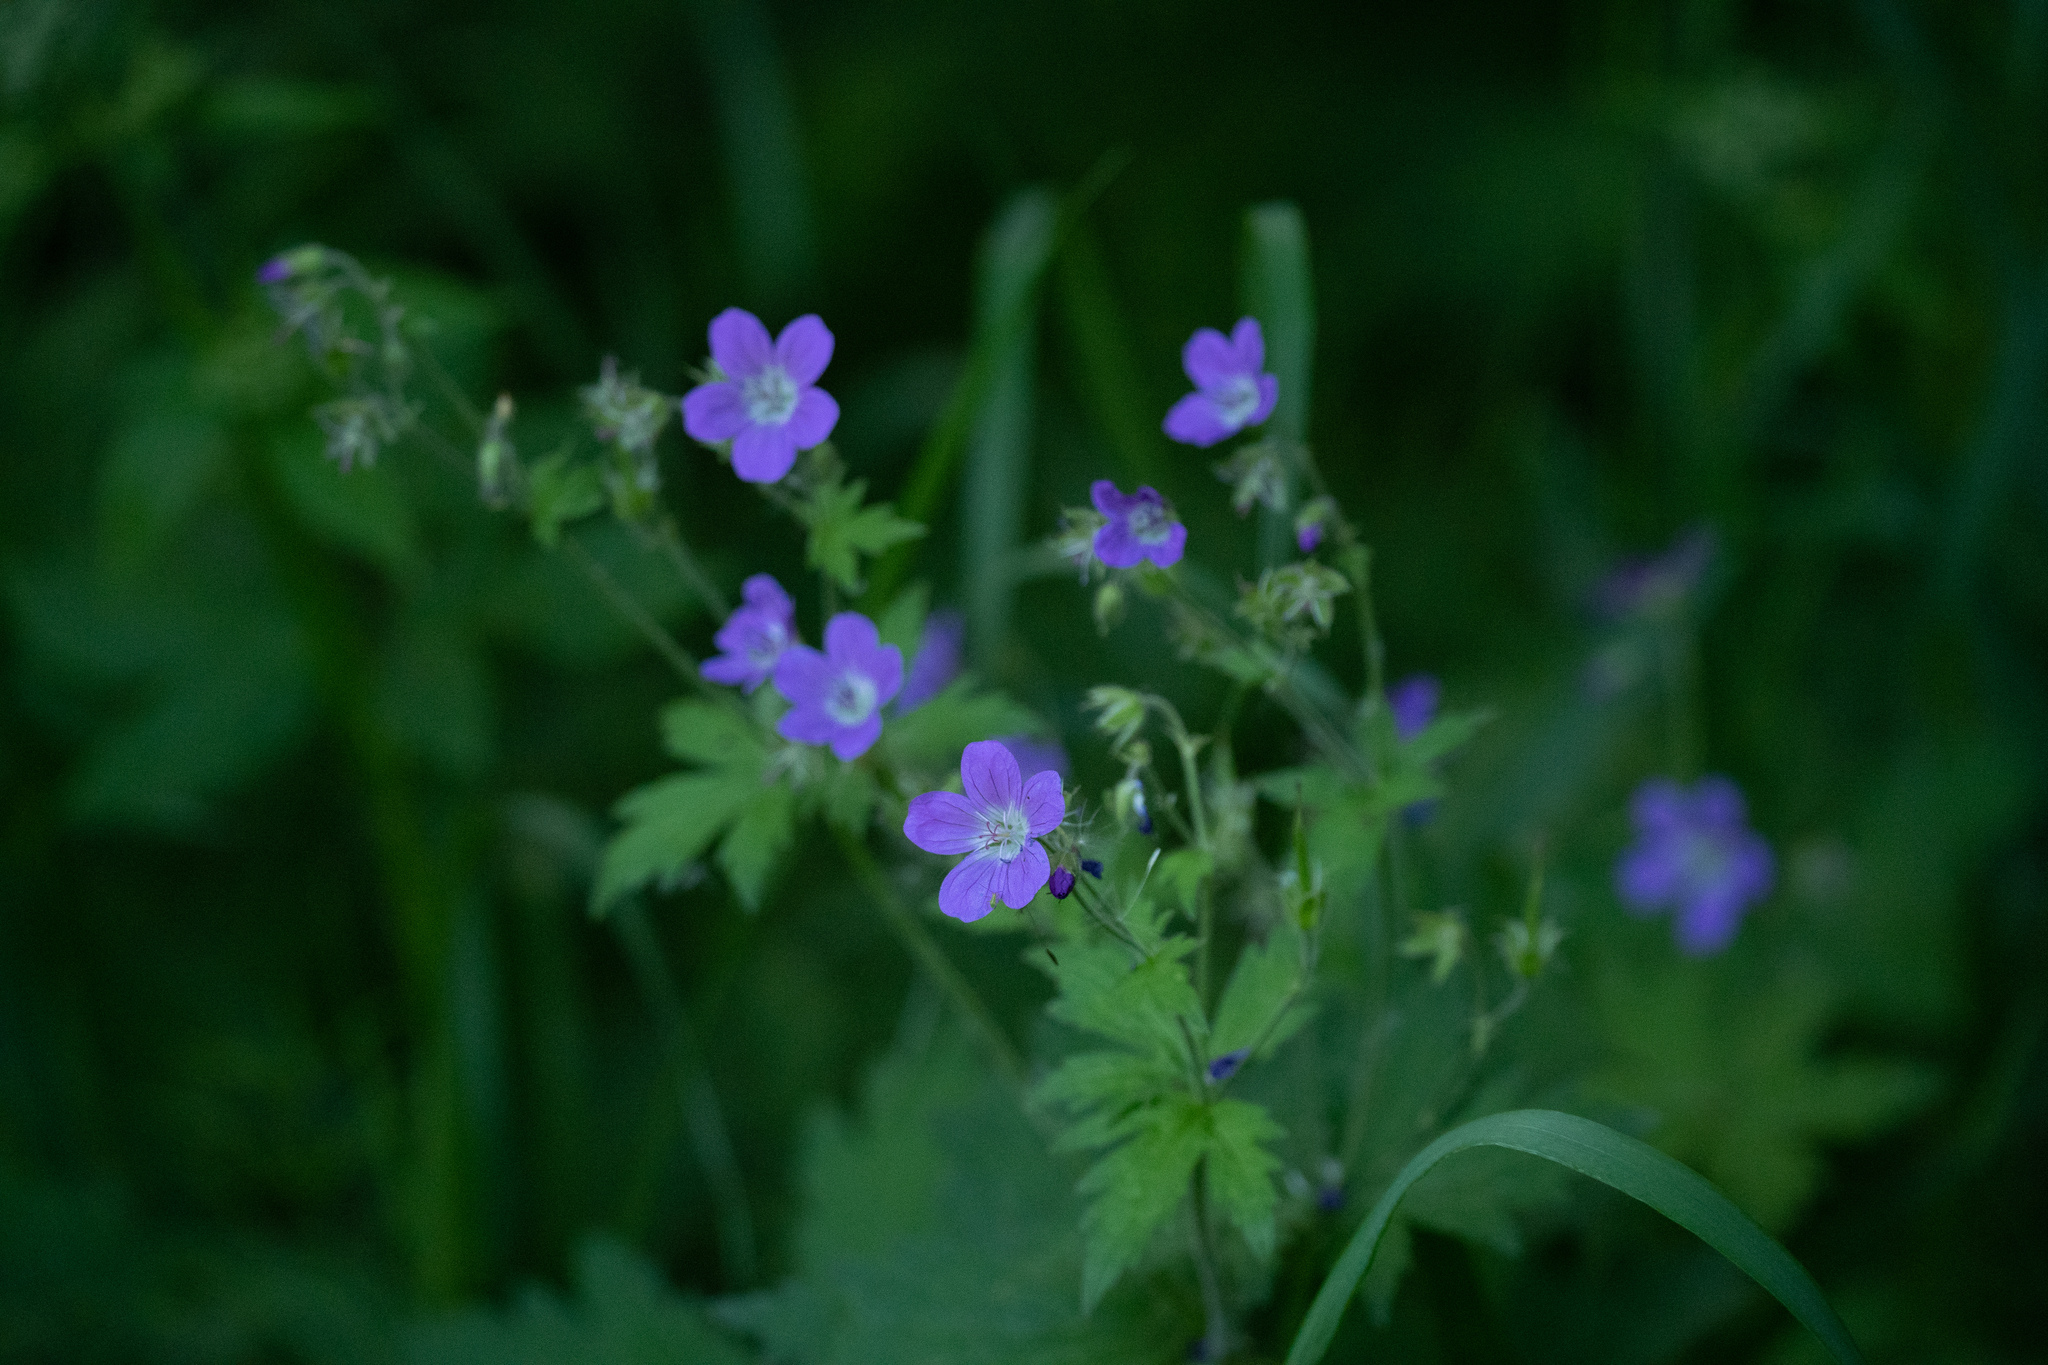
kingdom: Plantae
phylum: Tracheophyta
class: Magnoliopsida
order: Geraniales
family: Geraniaceae
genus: Geranium
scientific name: Geranium sylvaticum
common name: Wood crane's-bill
